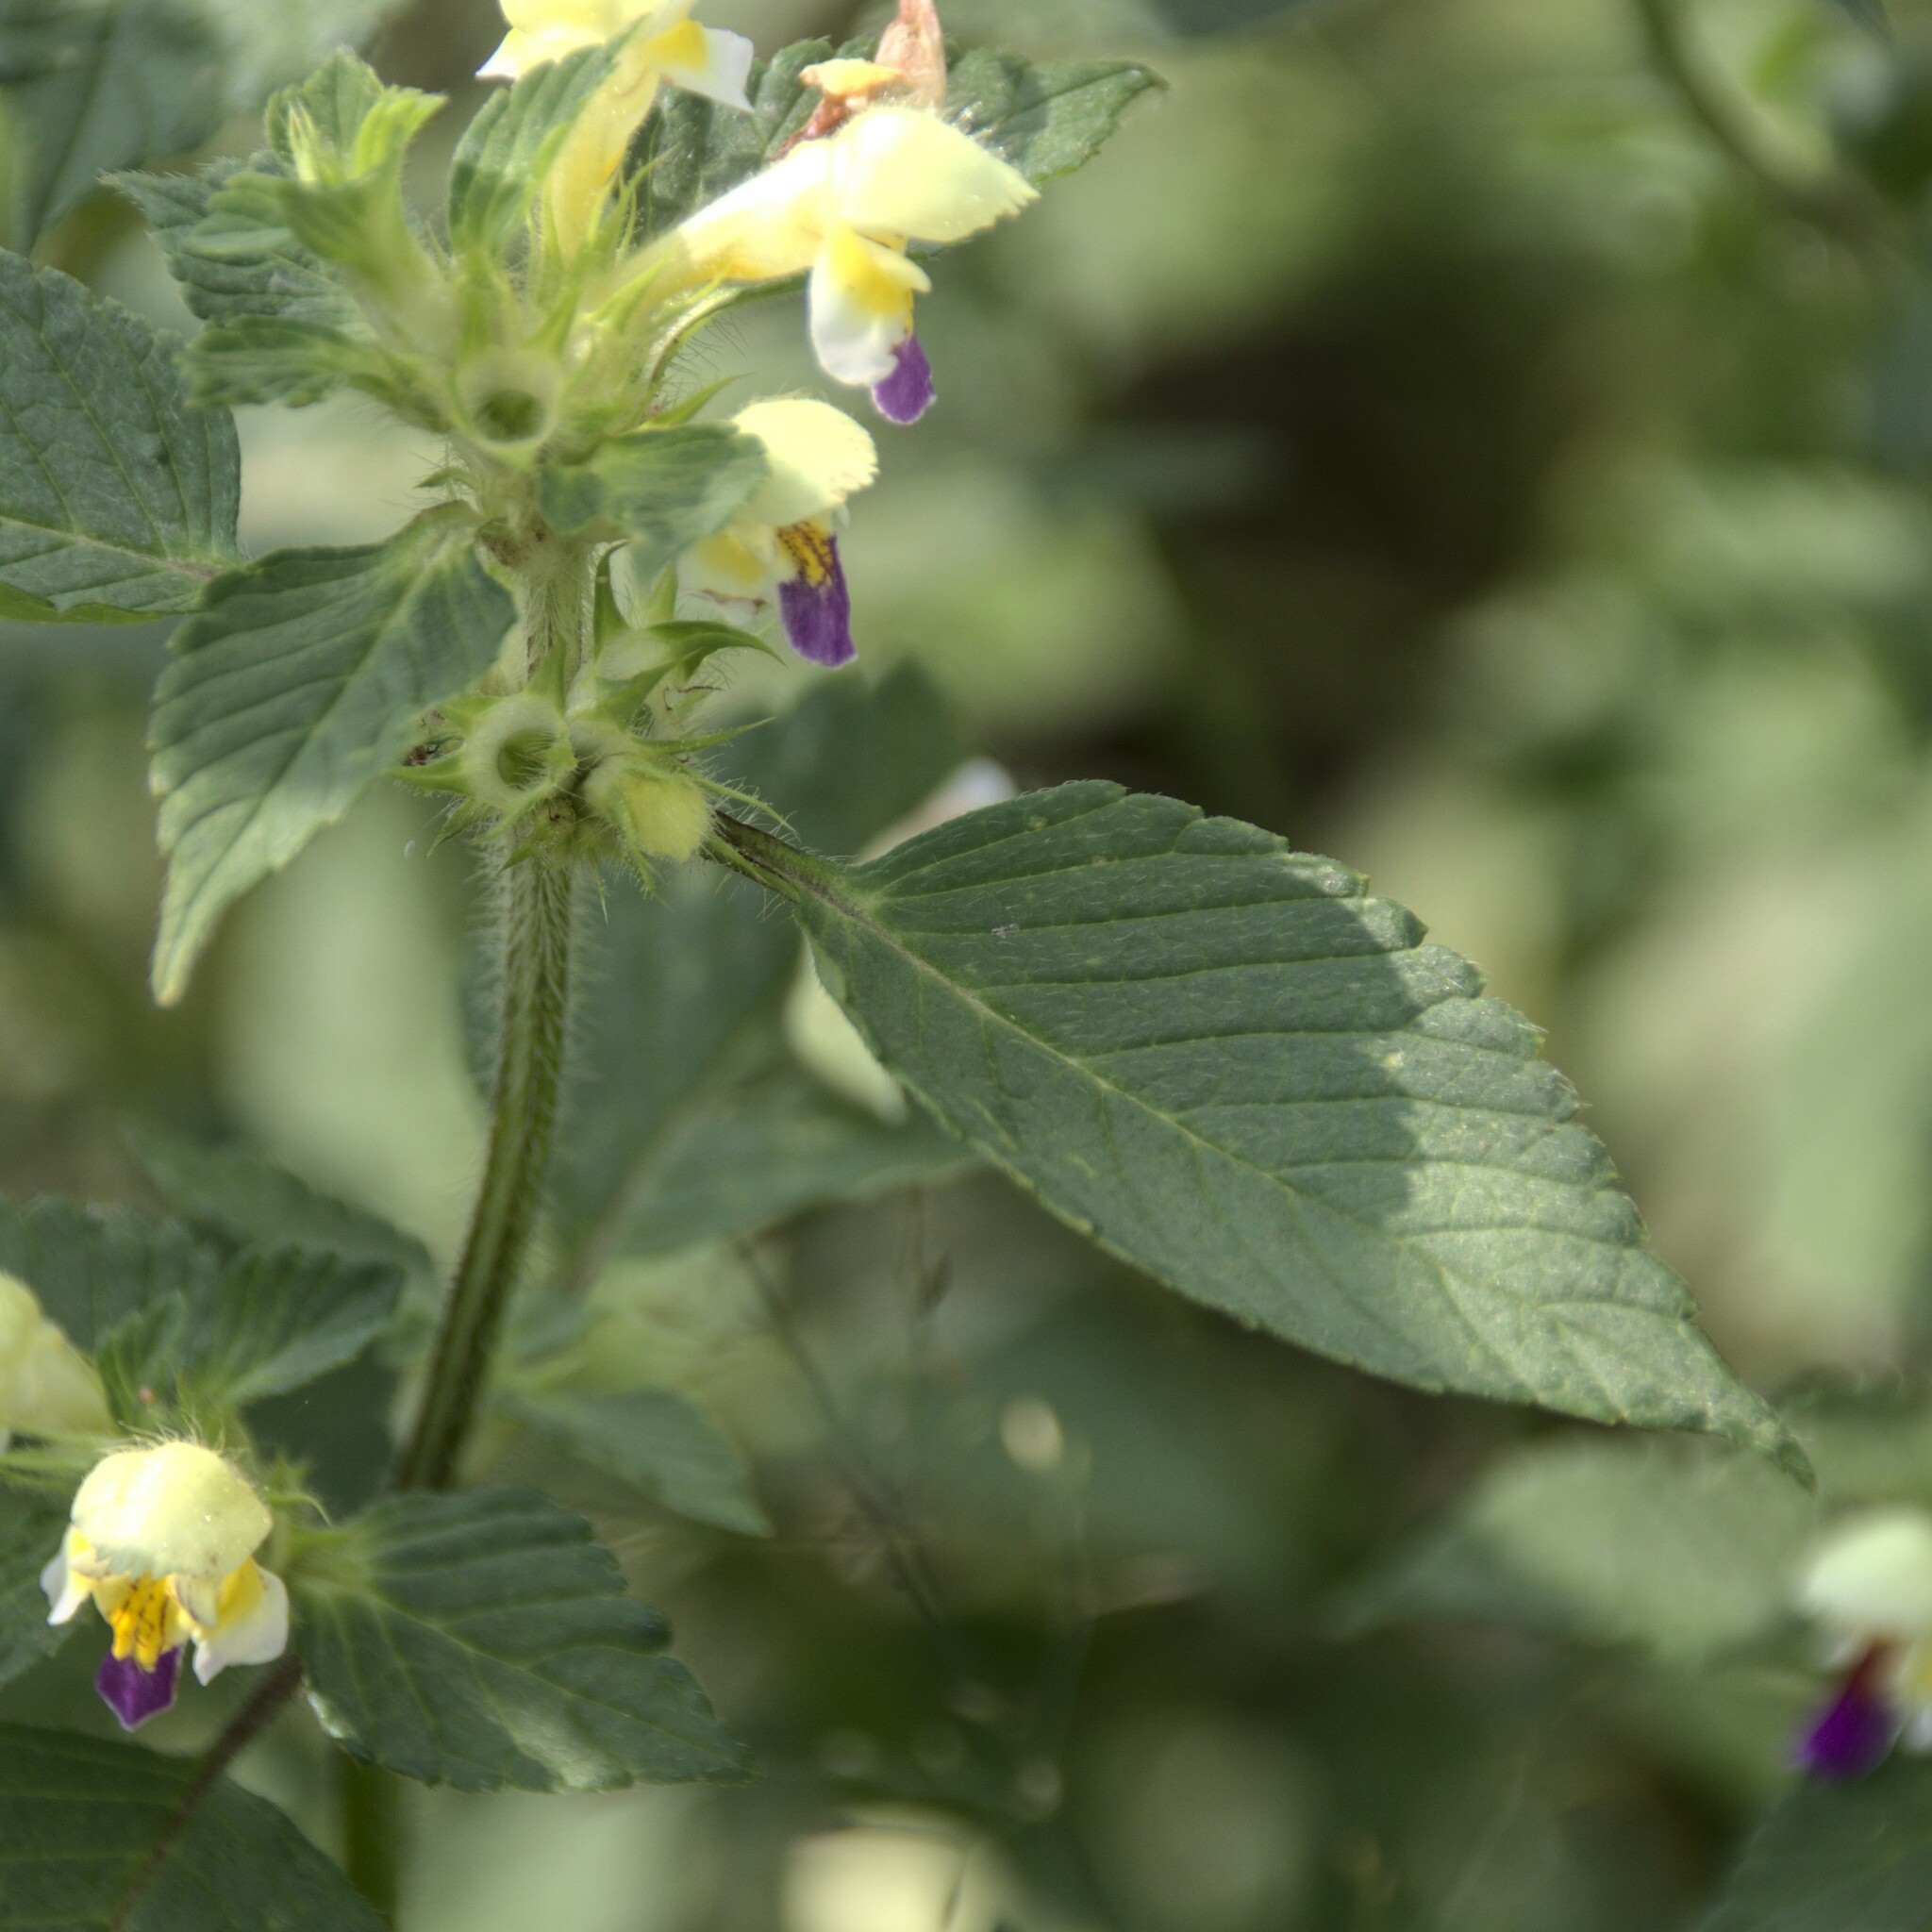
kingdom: Plantae
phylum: Tracheophyta
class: Magnoliopsida
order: Lamiales
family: Lamiaceae
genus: Galeopsis
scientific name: Galeopsis speciosa
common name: Large-flowered hemp-nettle
